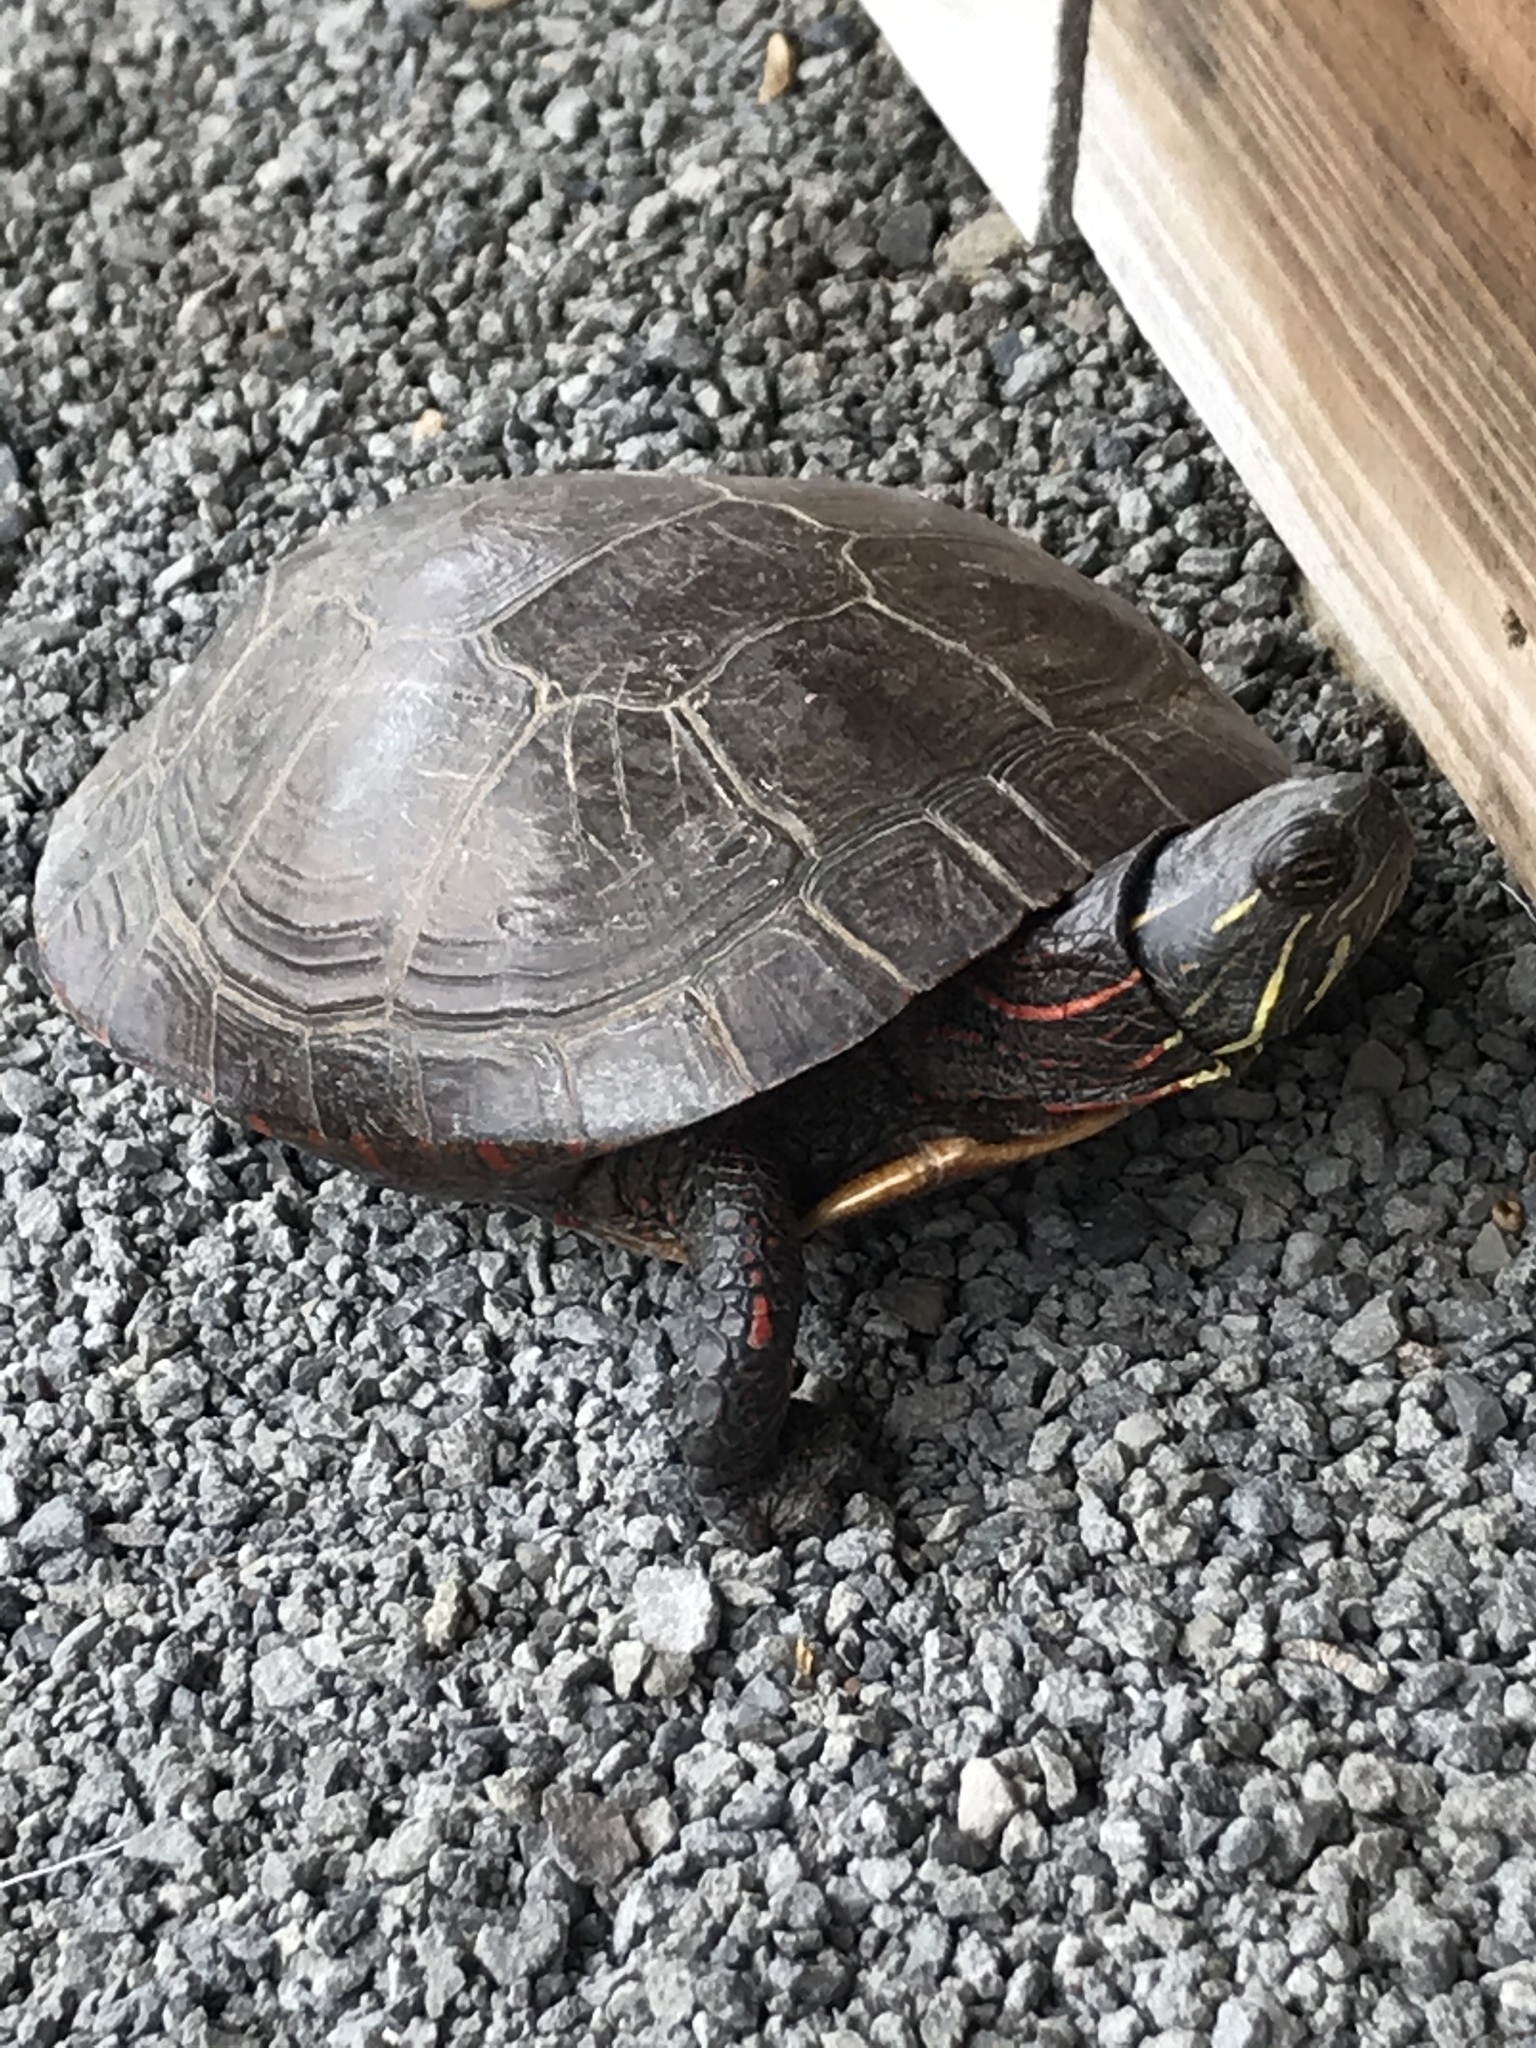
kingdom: Animalia
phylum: Chordata
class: Testudines
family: Emydidae
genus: Chrysemys
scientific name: Chrysemys picta
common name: Painted turtle
